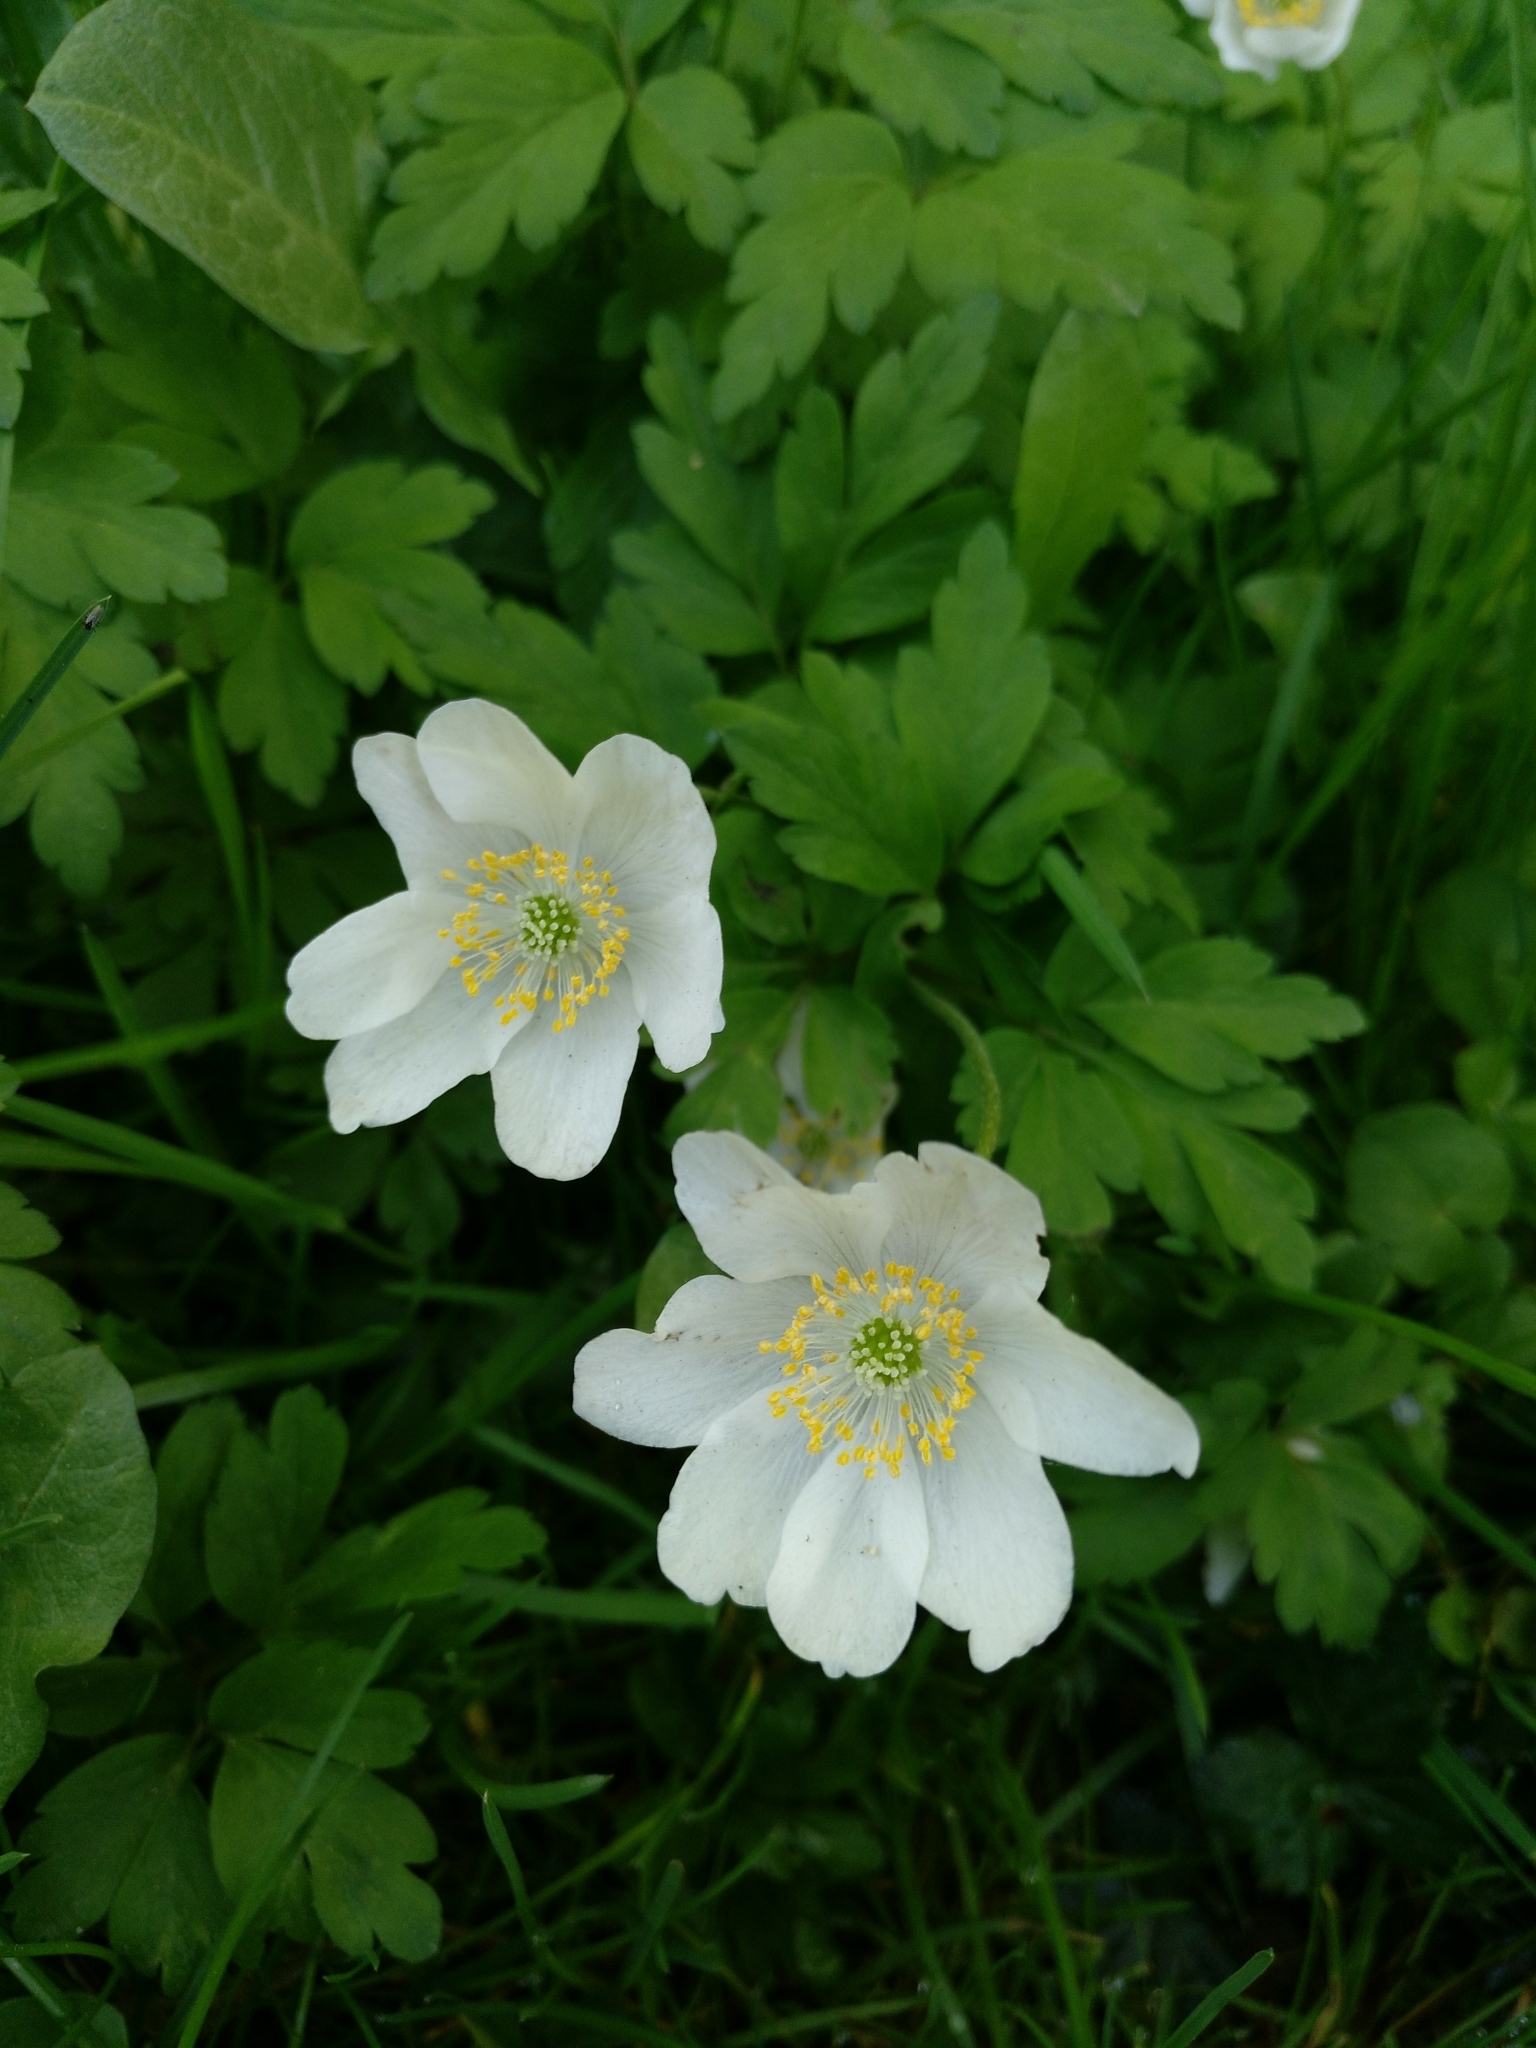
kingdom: Plantae
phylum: Tracheophyta
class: Magnoliopsida
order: Ranunculales
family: Ranunculaceae
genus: Anemone
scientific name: Anemone nemorosa
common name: Wood anemone
